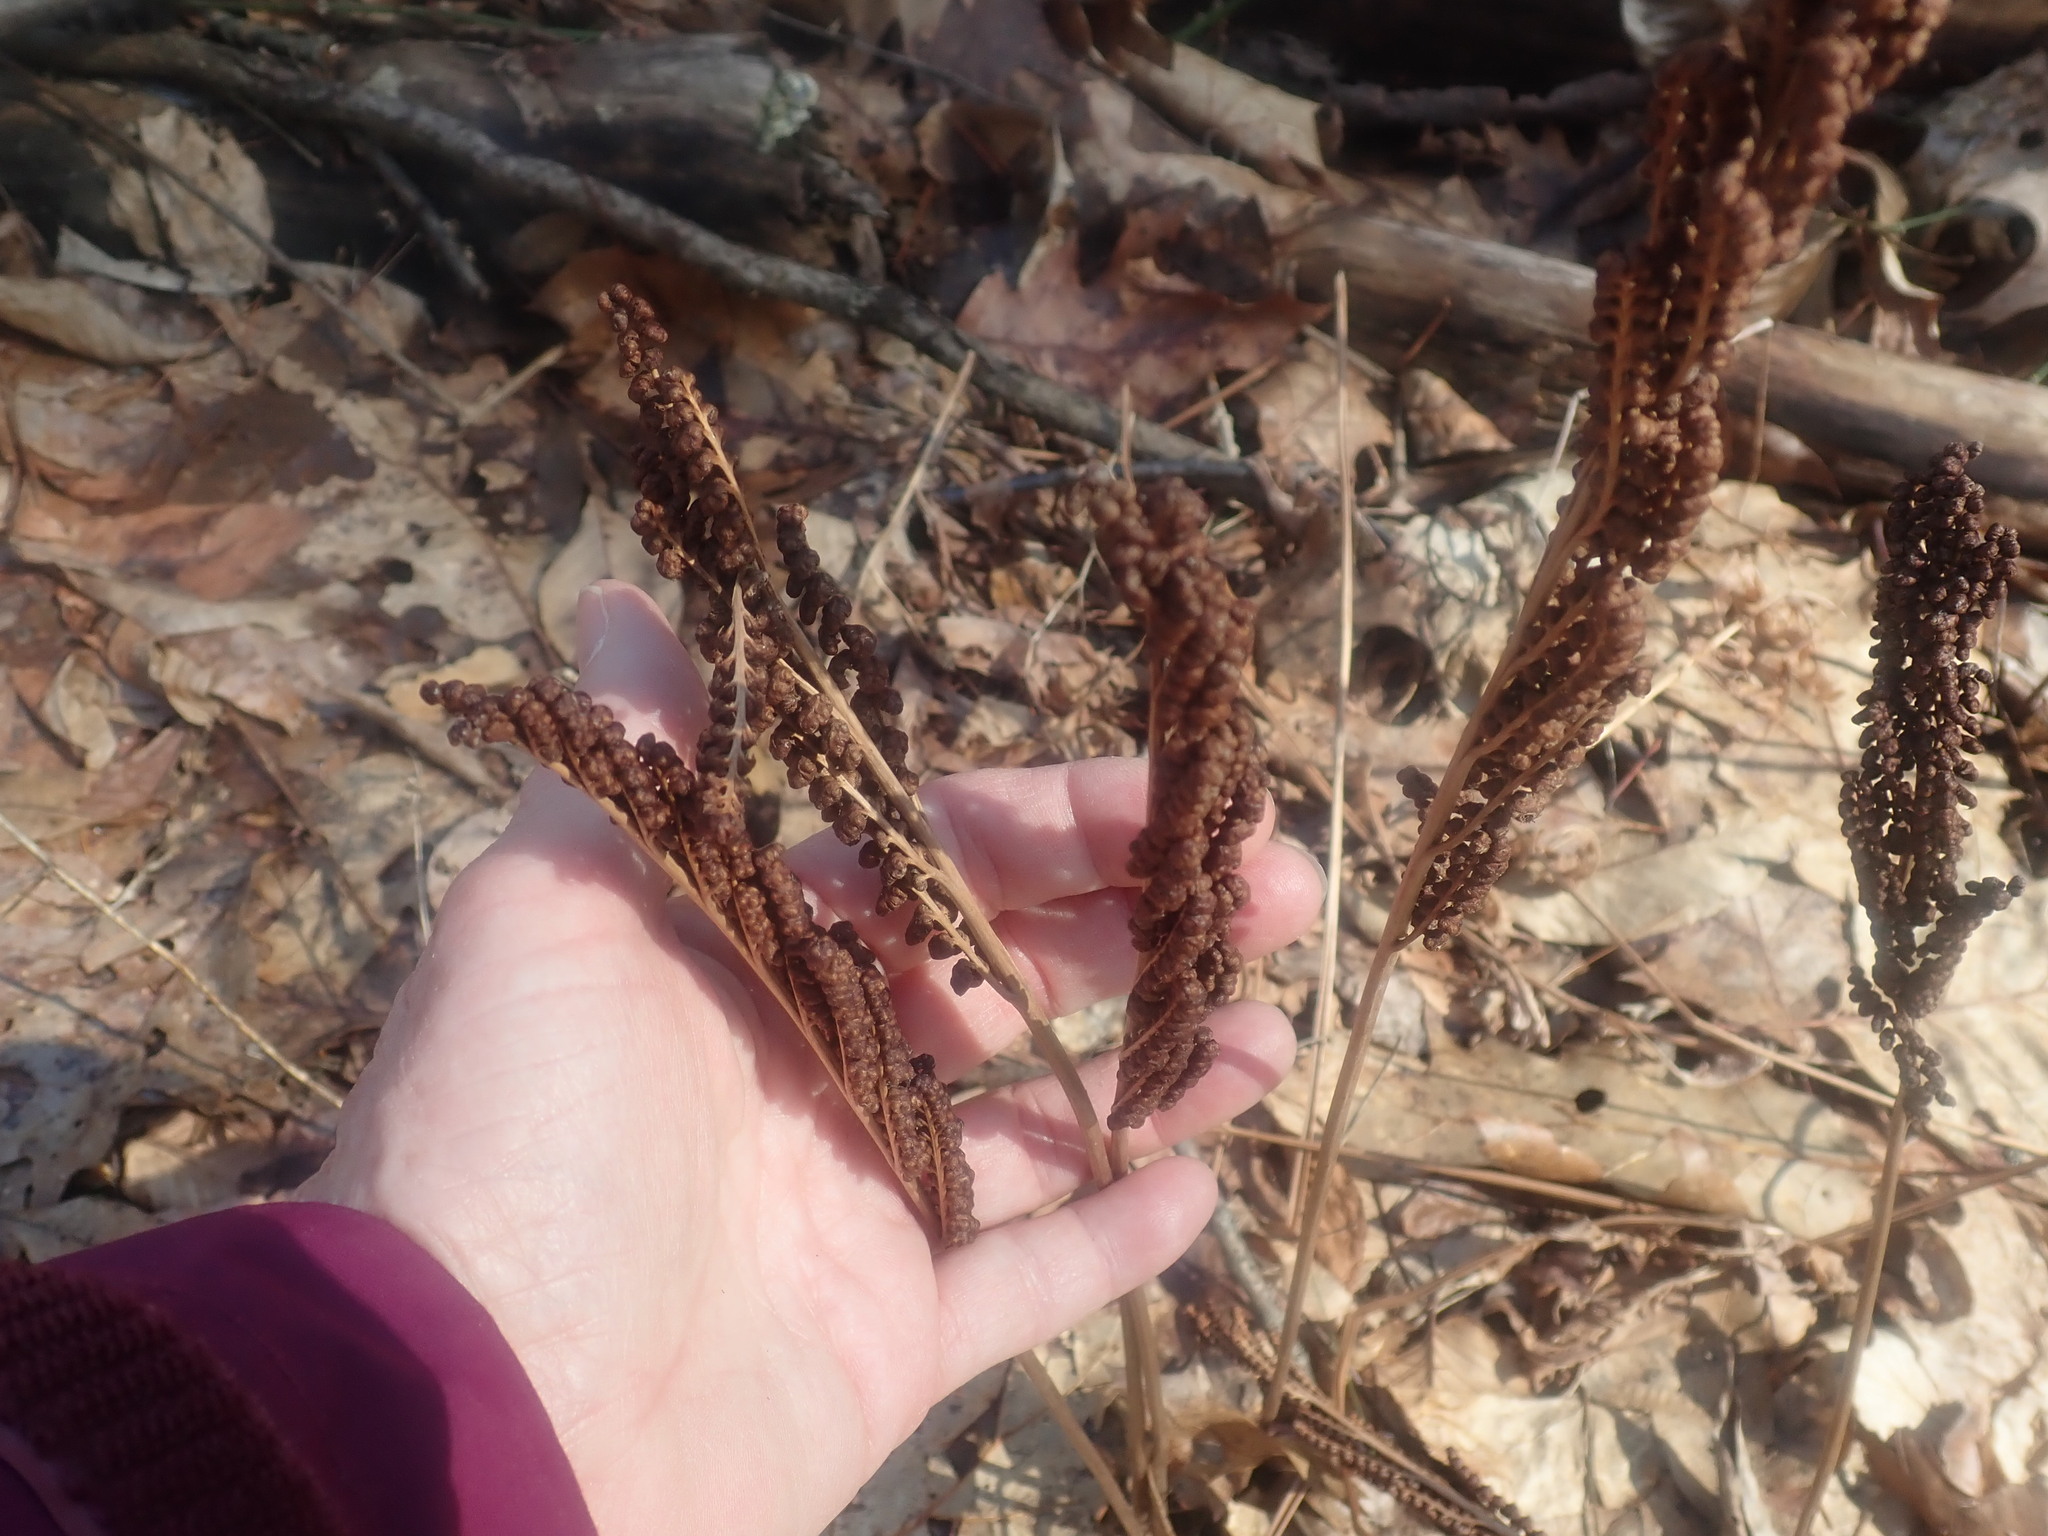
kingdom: Plantae
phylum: Tracheophyta
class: Polypodiopsida
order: Polypodiales
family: Onocleaceae
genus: Onoclea
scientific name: Onoclea sensibilis
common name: Sensitive fern
